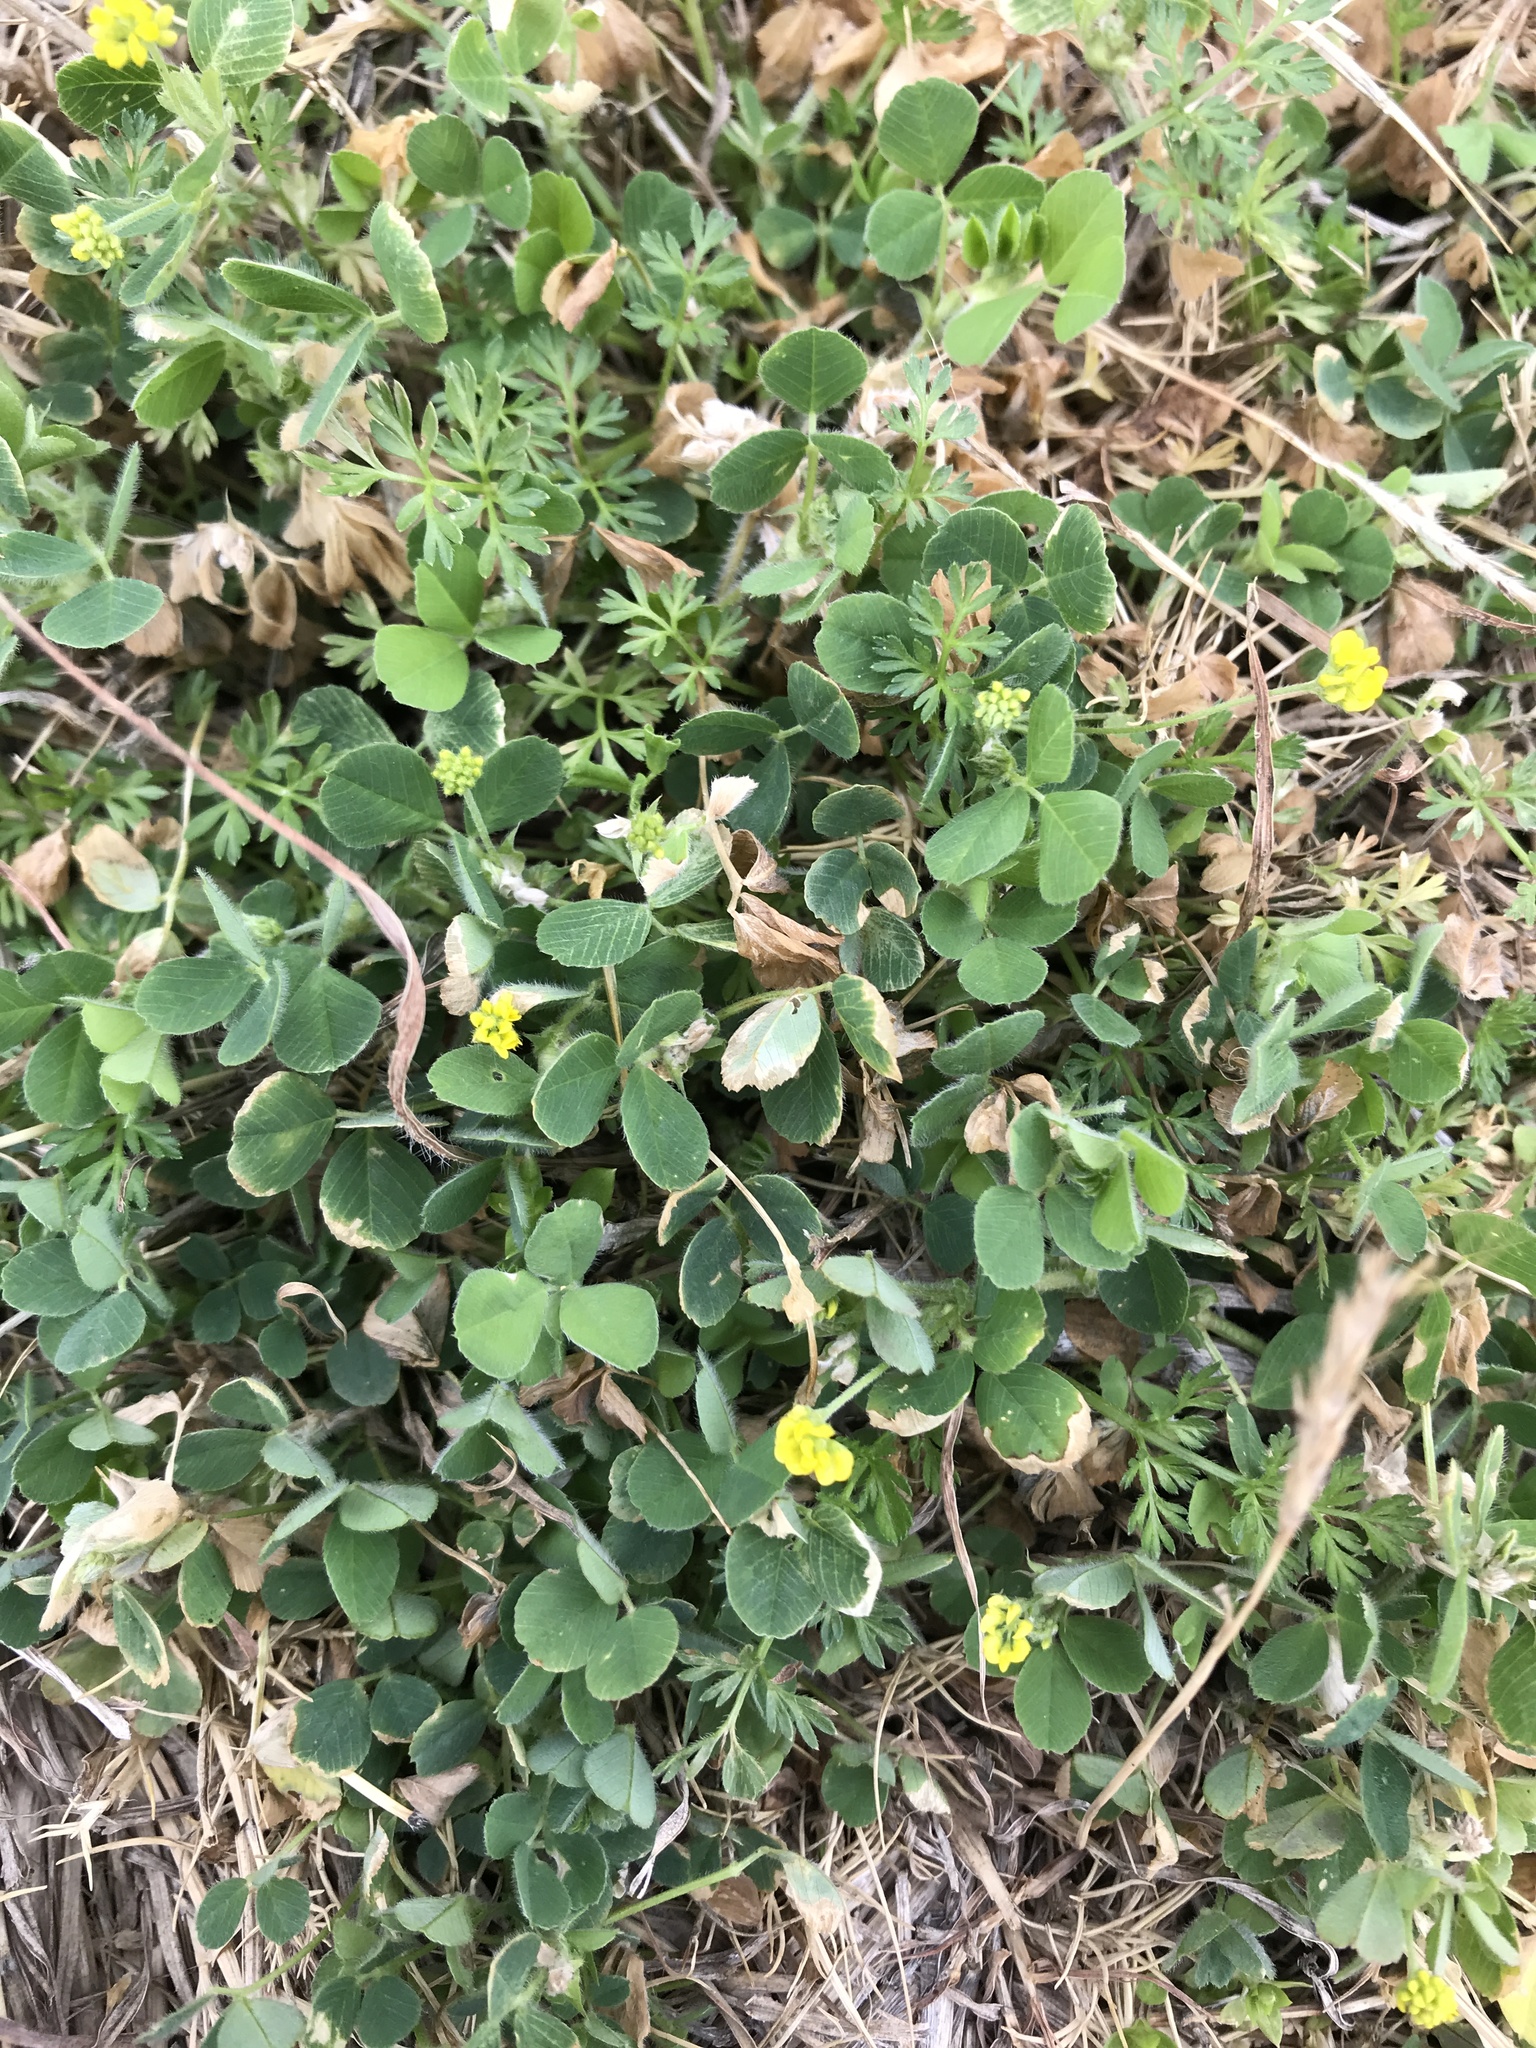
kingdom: Plantae
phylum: Tracheophyta
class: Magnoliopsida
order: Fabales
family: Fabaceae
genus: Medicago
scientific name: Medicago lupulina
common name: Black medick
